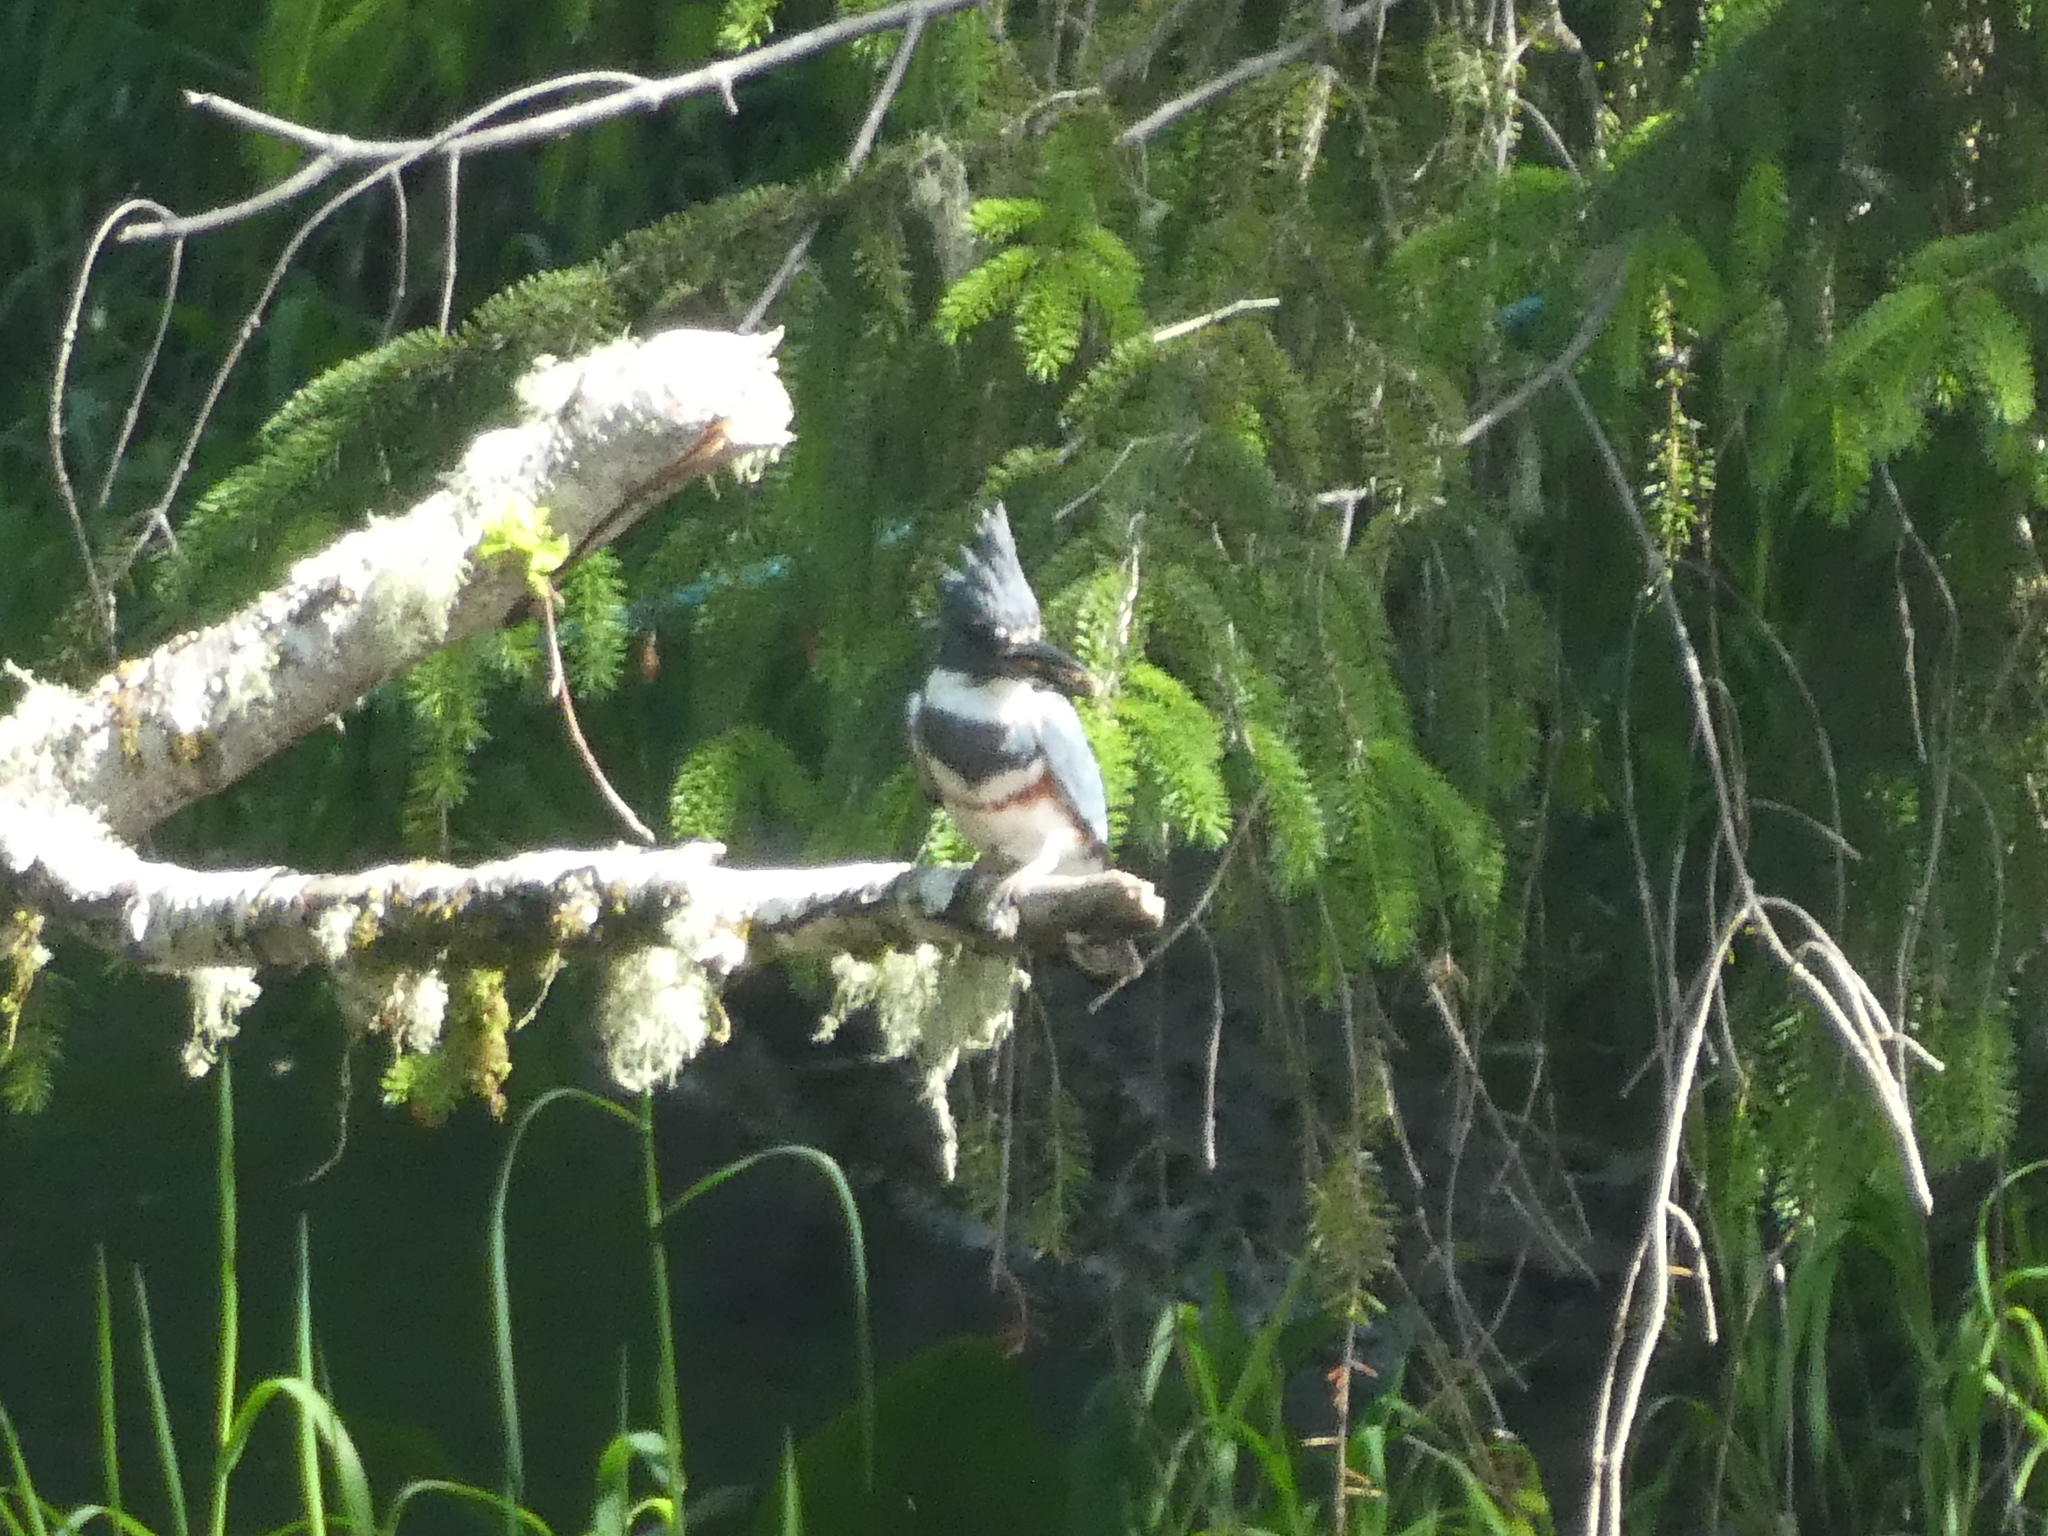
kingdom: Animalia
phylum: Chordata
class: Aves
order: Coraciiformes
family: Alcedinidae
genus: Megaceryle
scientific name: Megaceryle alcyon
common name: Belted kingfisher
